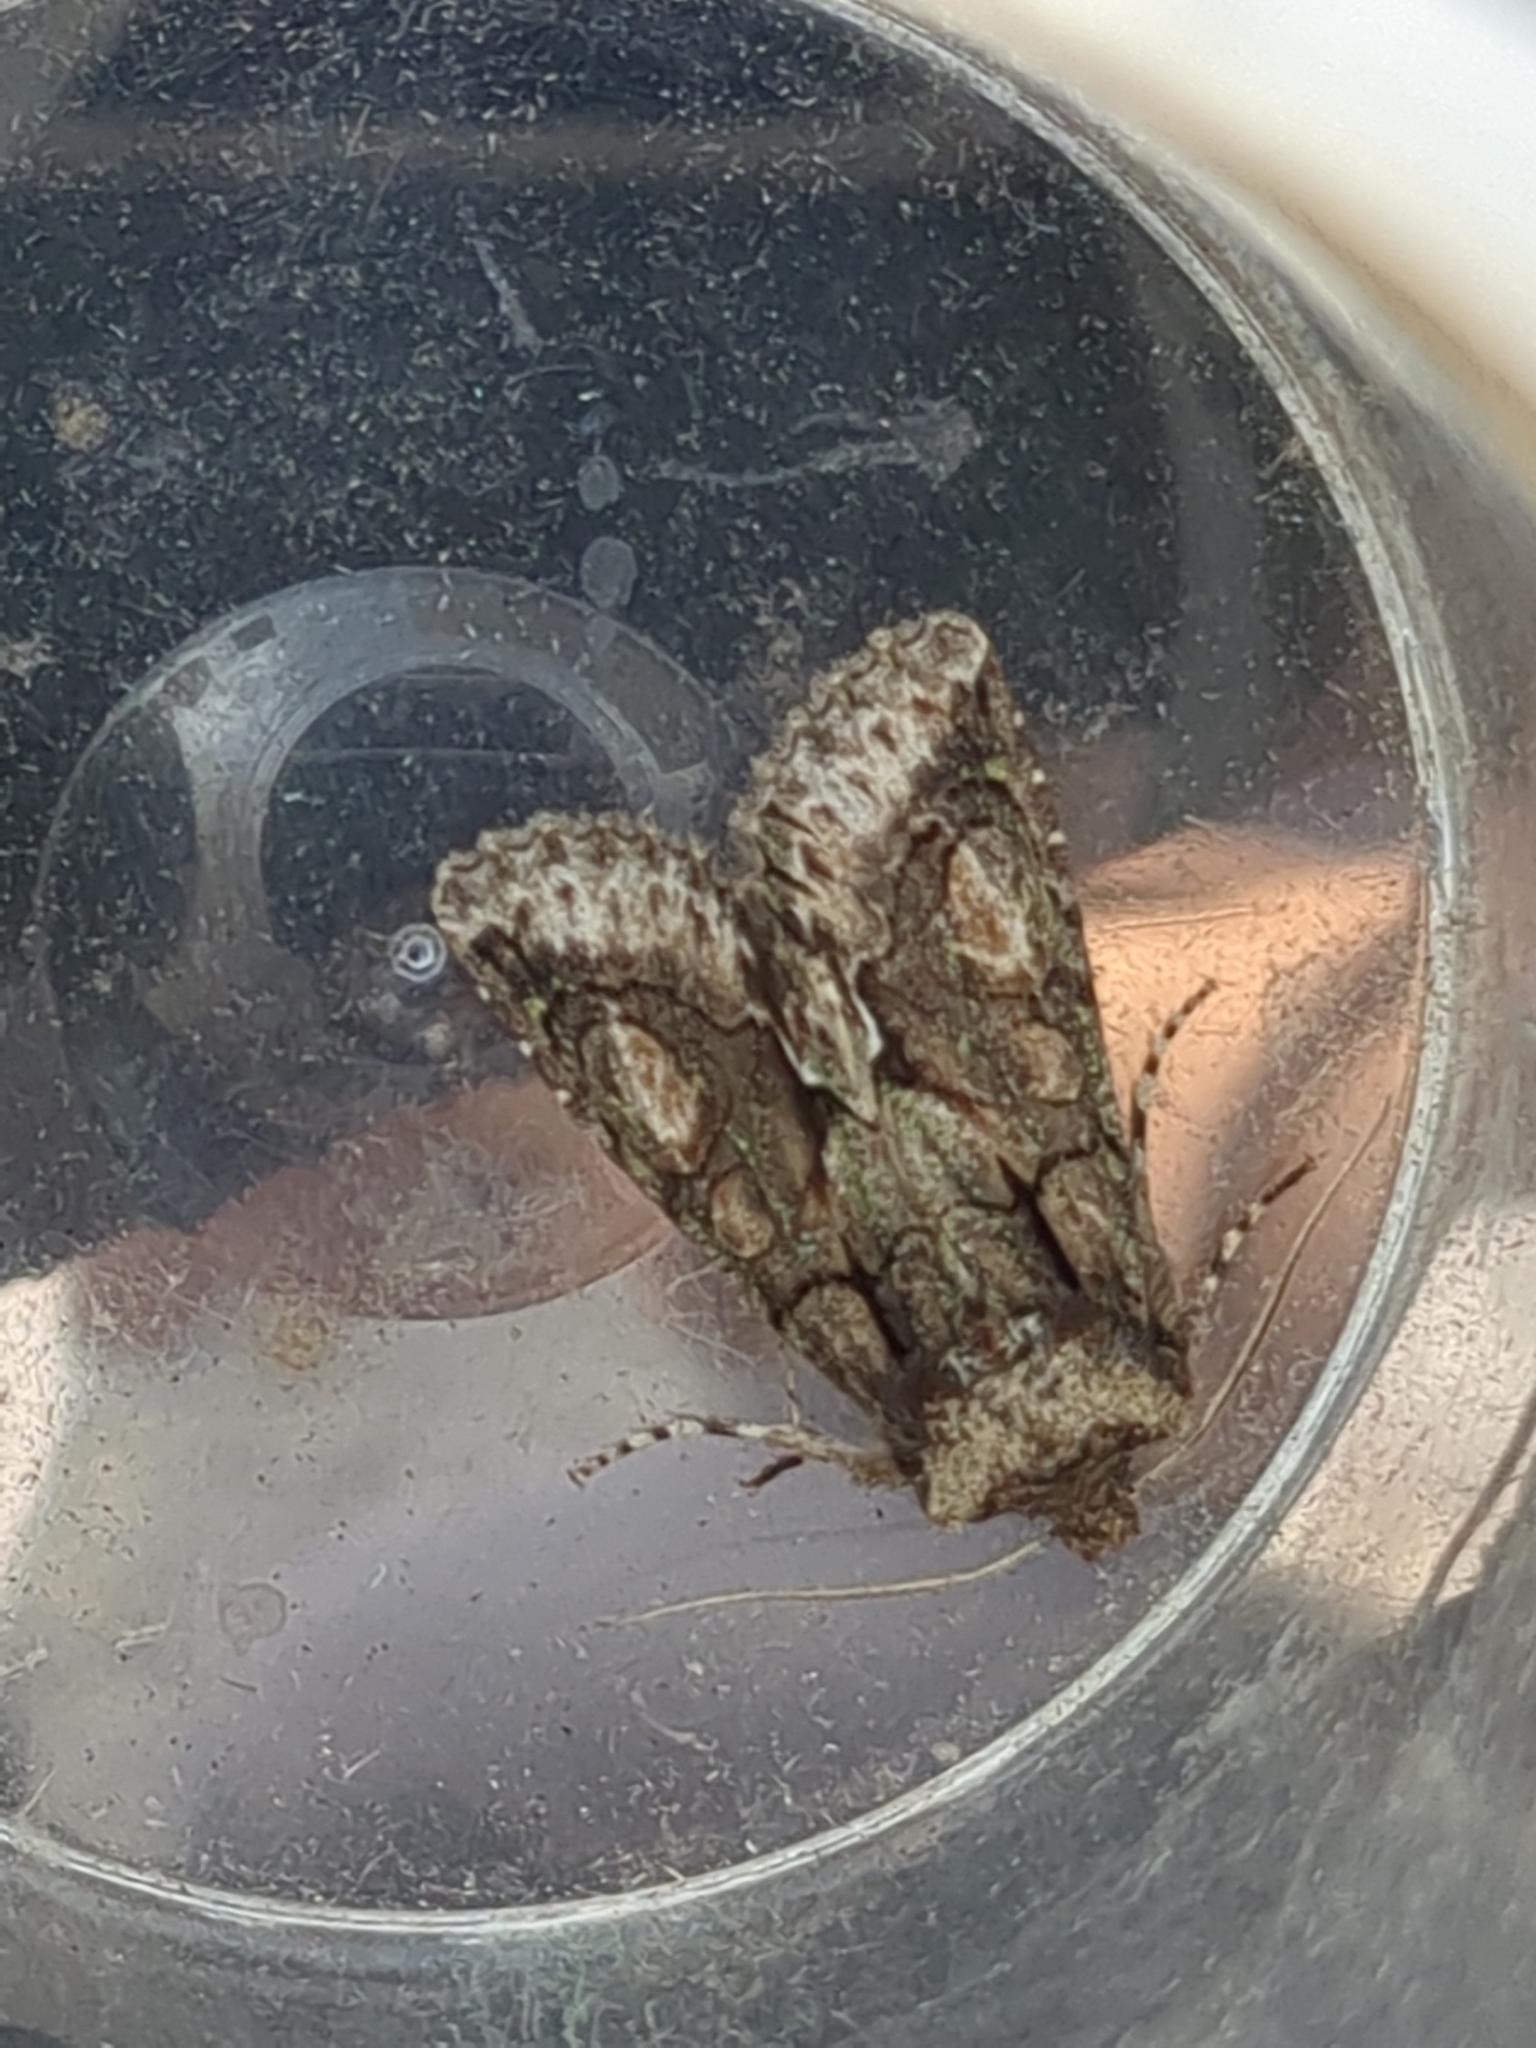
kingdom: Animalia
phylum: Arthropoda
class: Insecta
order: Lepidoptera
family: Noctuidae
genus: Allophyes
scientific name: Allophyes oxyacanthae
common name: Green-brindled crescent
